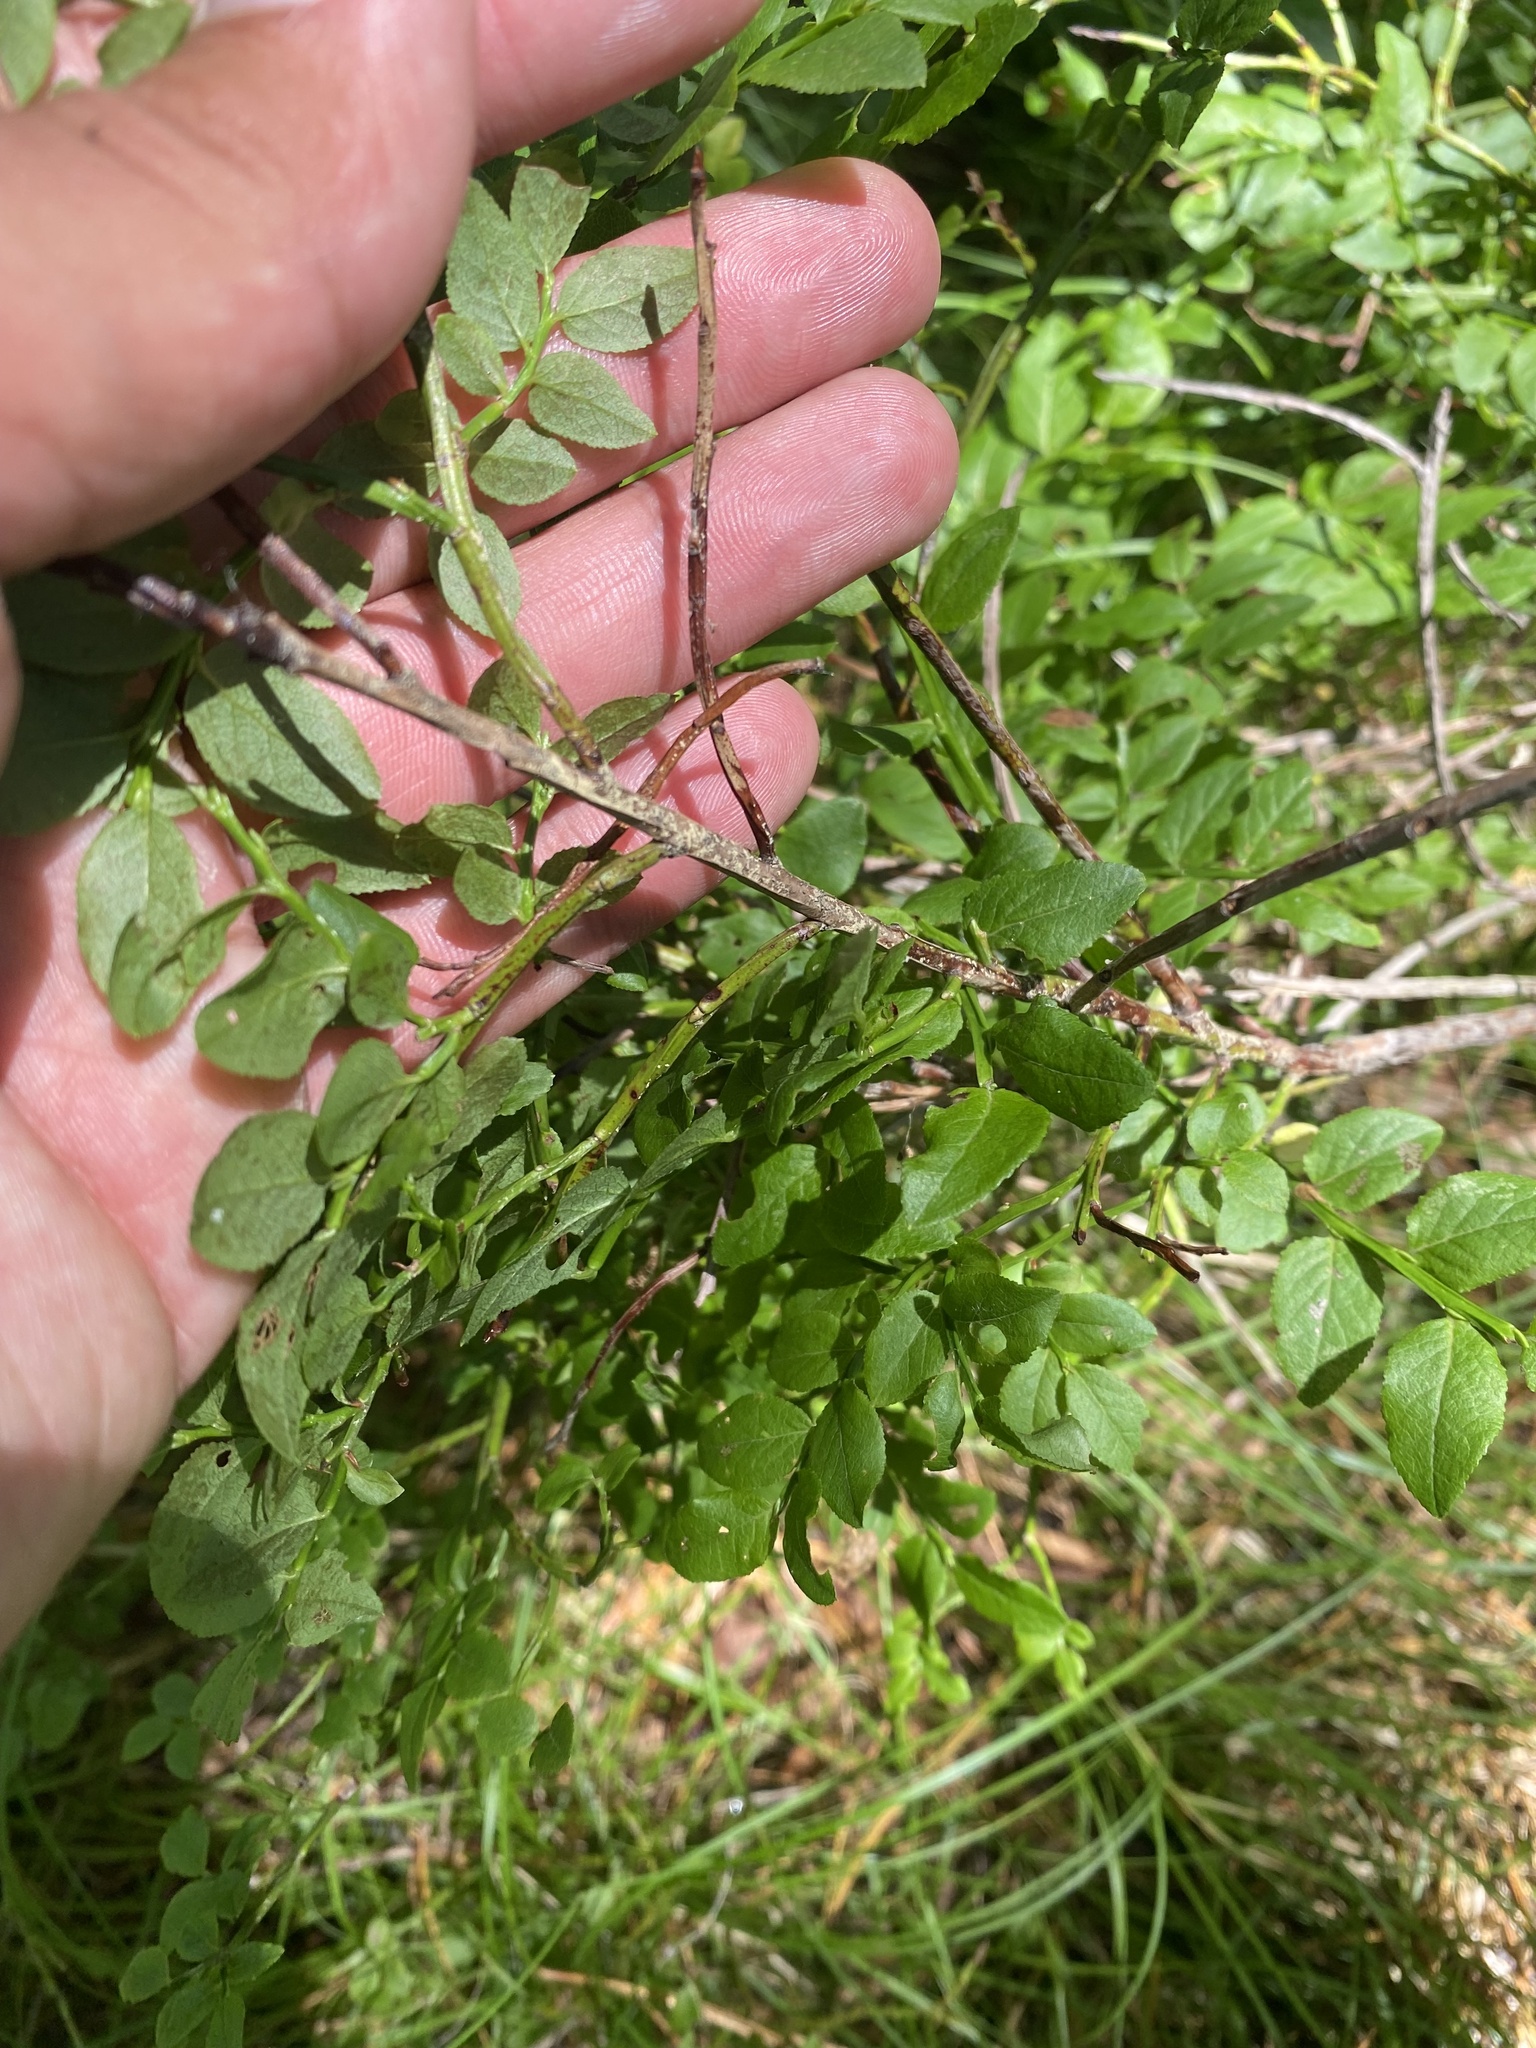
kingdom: Plantae
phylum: Tracheophyta
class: Magnoliopsida
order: Ericales
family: Ericaceae
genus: Vaccinium
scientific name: Vaccinium myrtillus
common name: Bilberry
